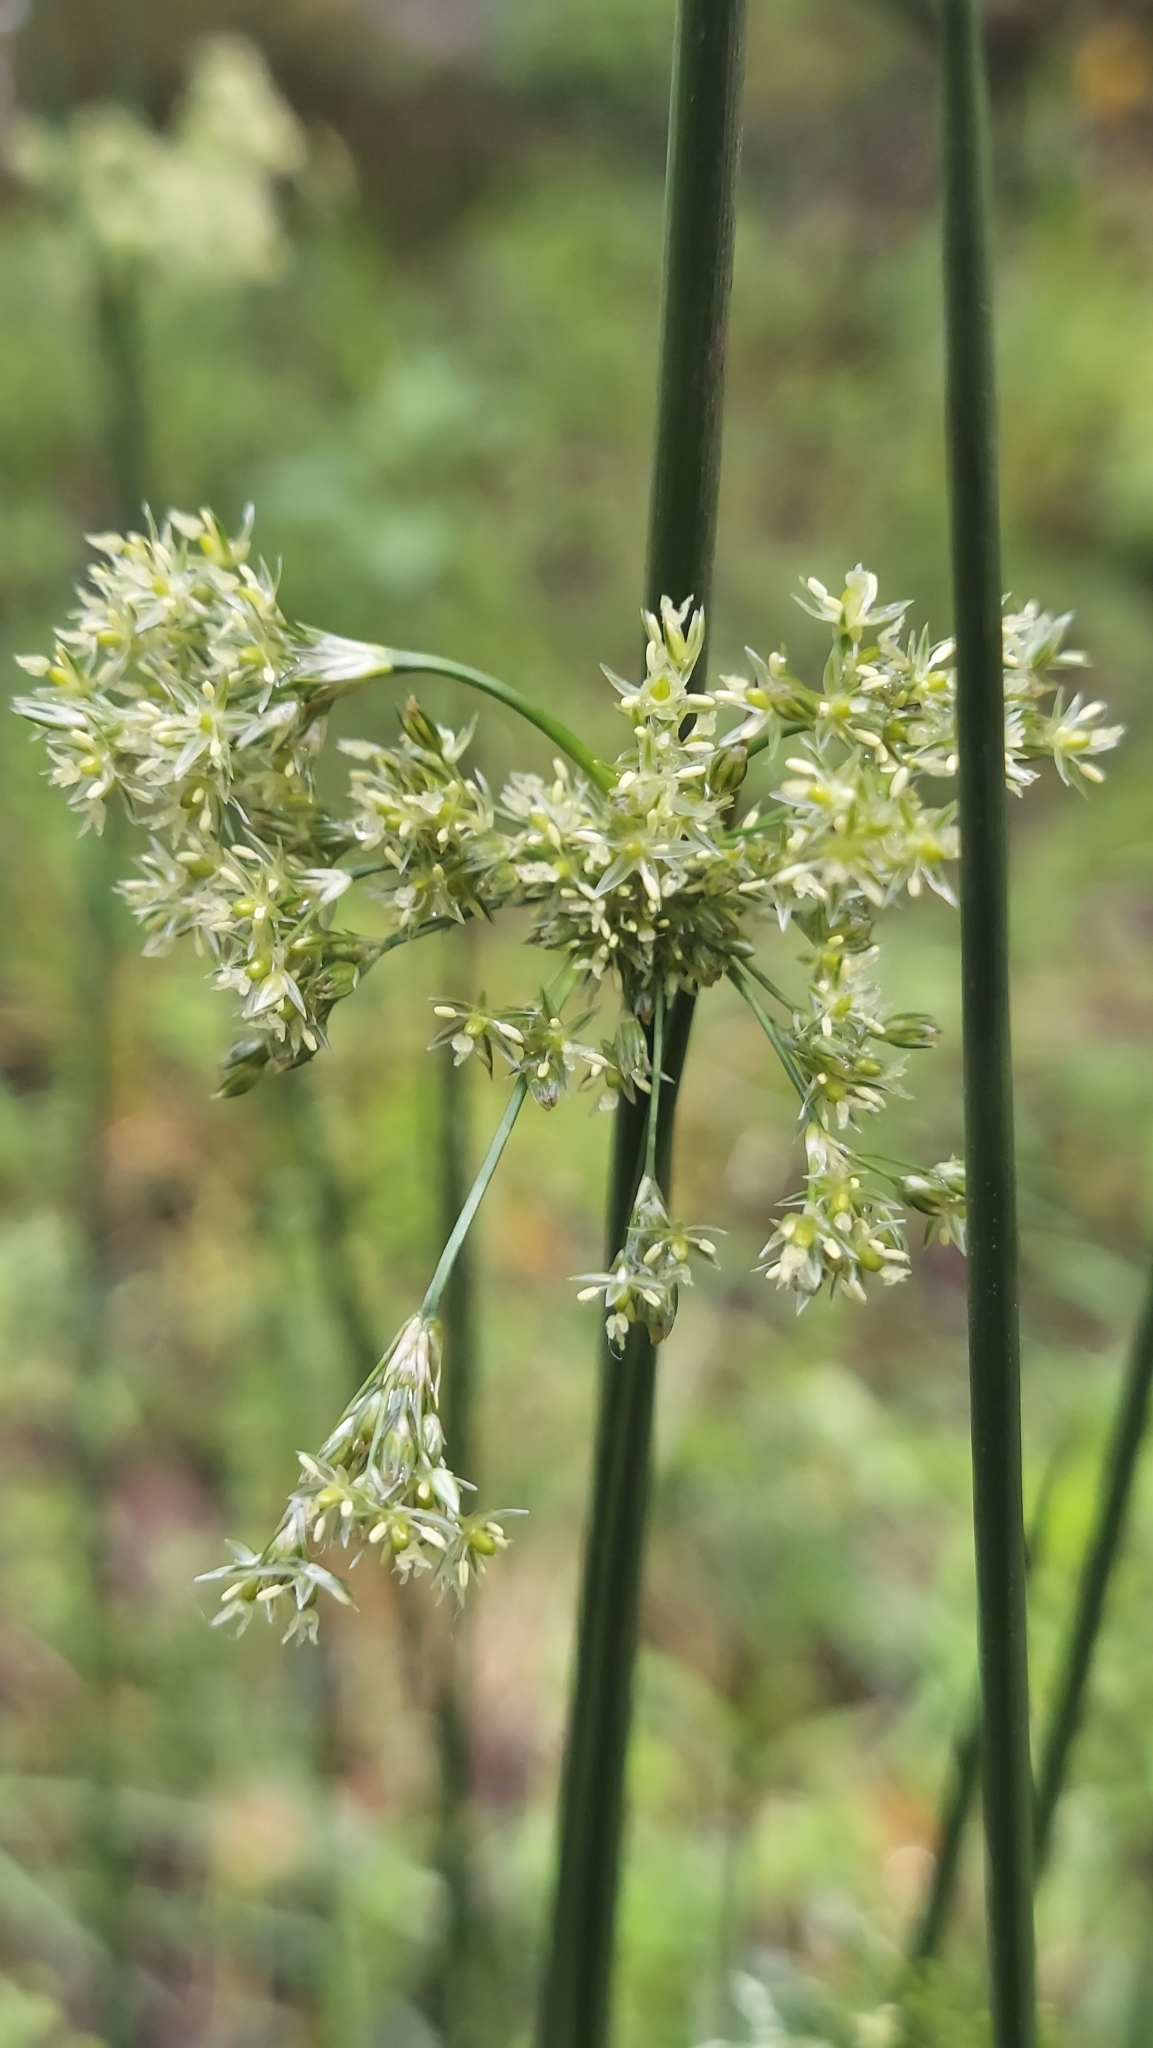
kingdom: Plantae
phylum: Tracheophyta
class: Liliopsida
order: Poales
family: Juncaceae
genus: Juncus
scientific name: Juncus effusus
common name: Soft rush
